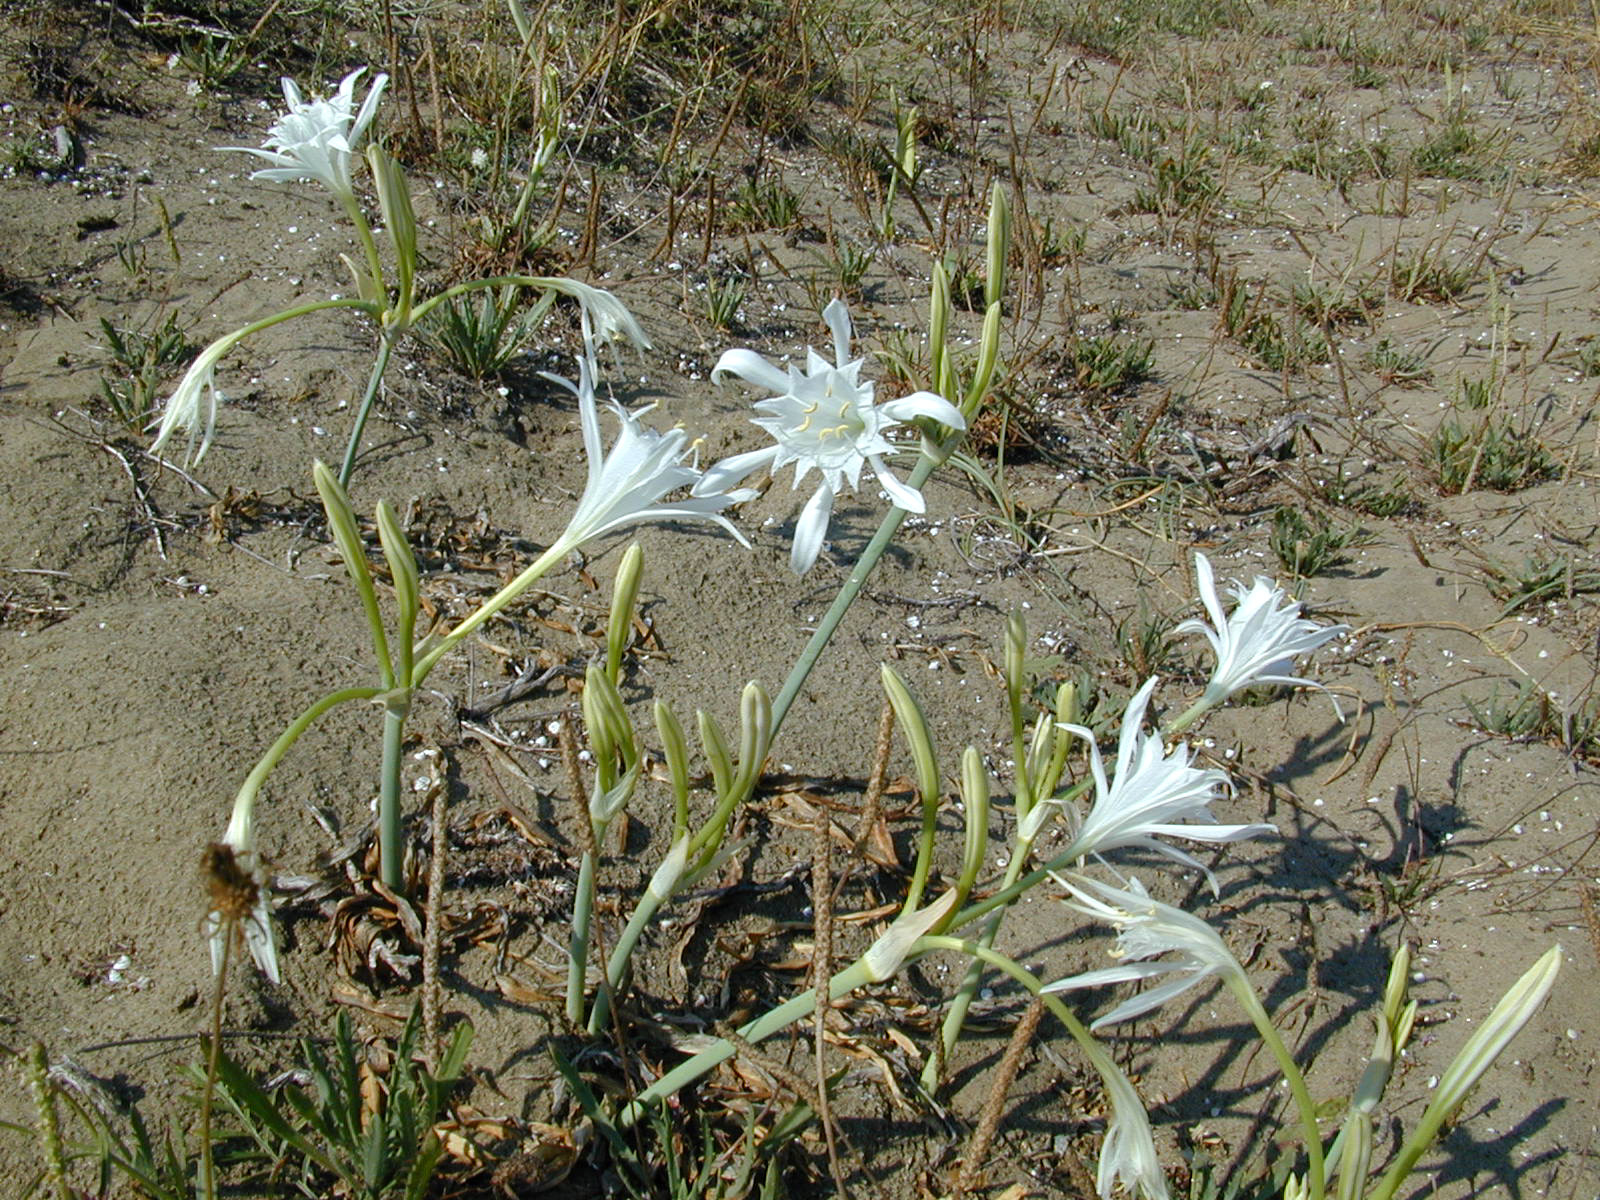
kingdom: Plantae
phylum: Tracheophyta
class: Liliopsida
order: Asparagales
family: Amaryllidaceae
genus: Pancratium
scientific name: Pancratium maritimum
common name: Sea-daffodil
